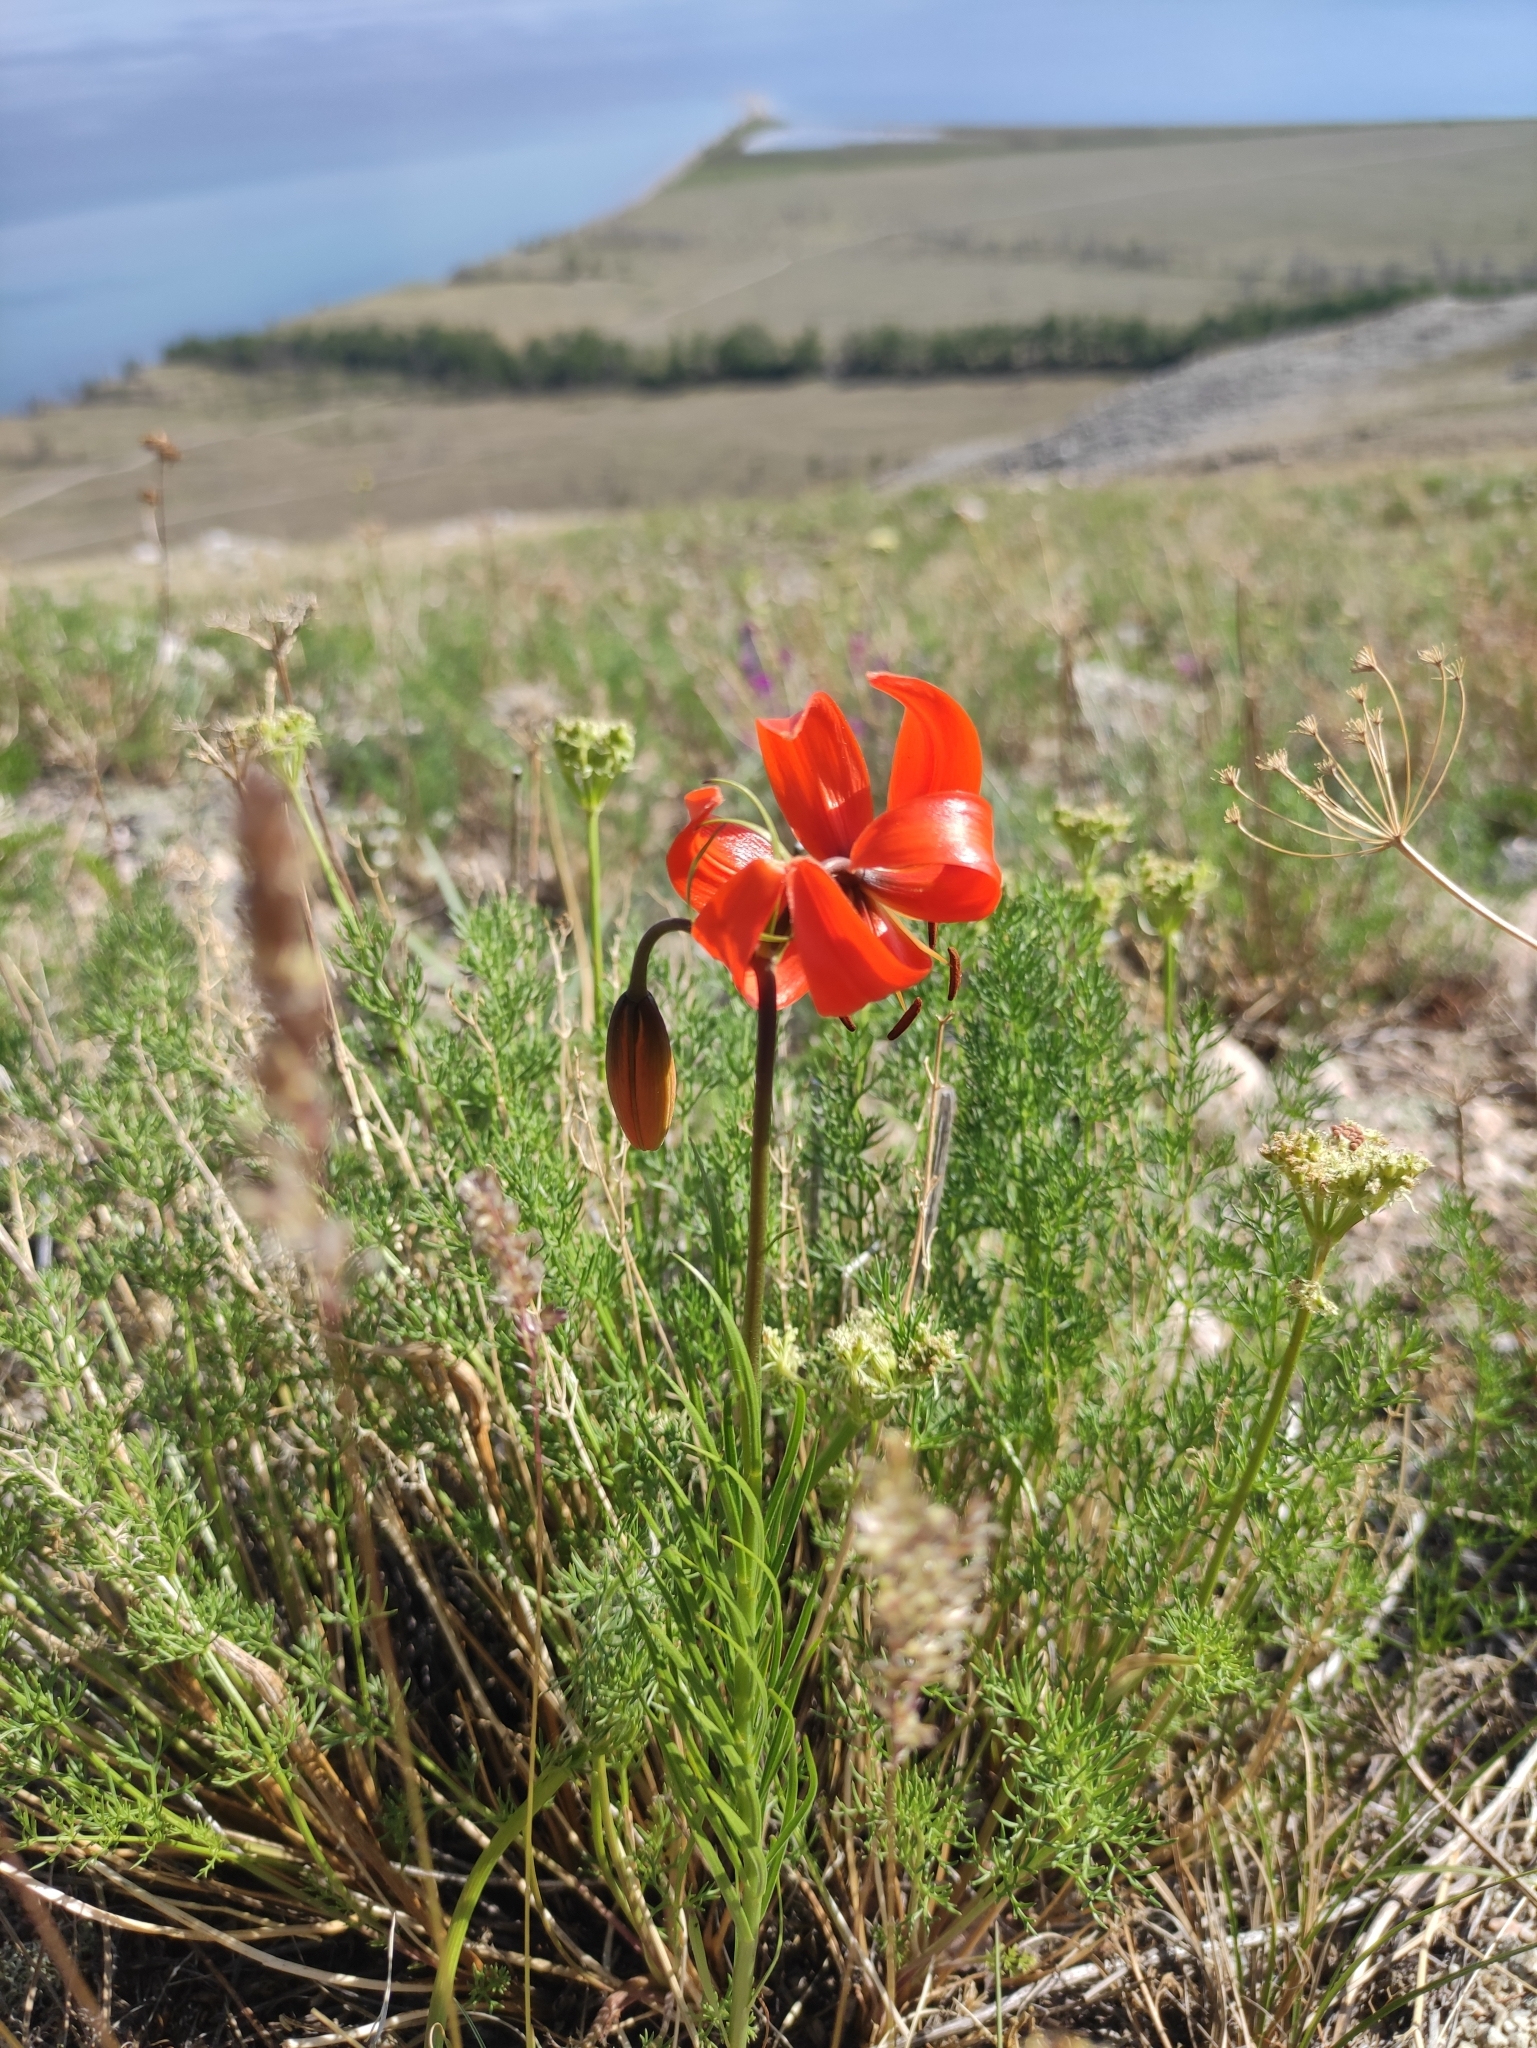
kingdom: Plantae
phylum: Tracheophyta
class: Liliopsida
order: Liliales
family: Liliaceae
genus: Lilium
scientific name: Lilium pumilum
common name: Coral lily
